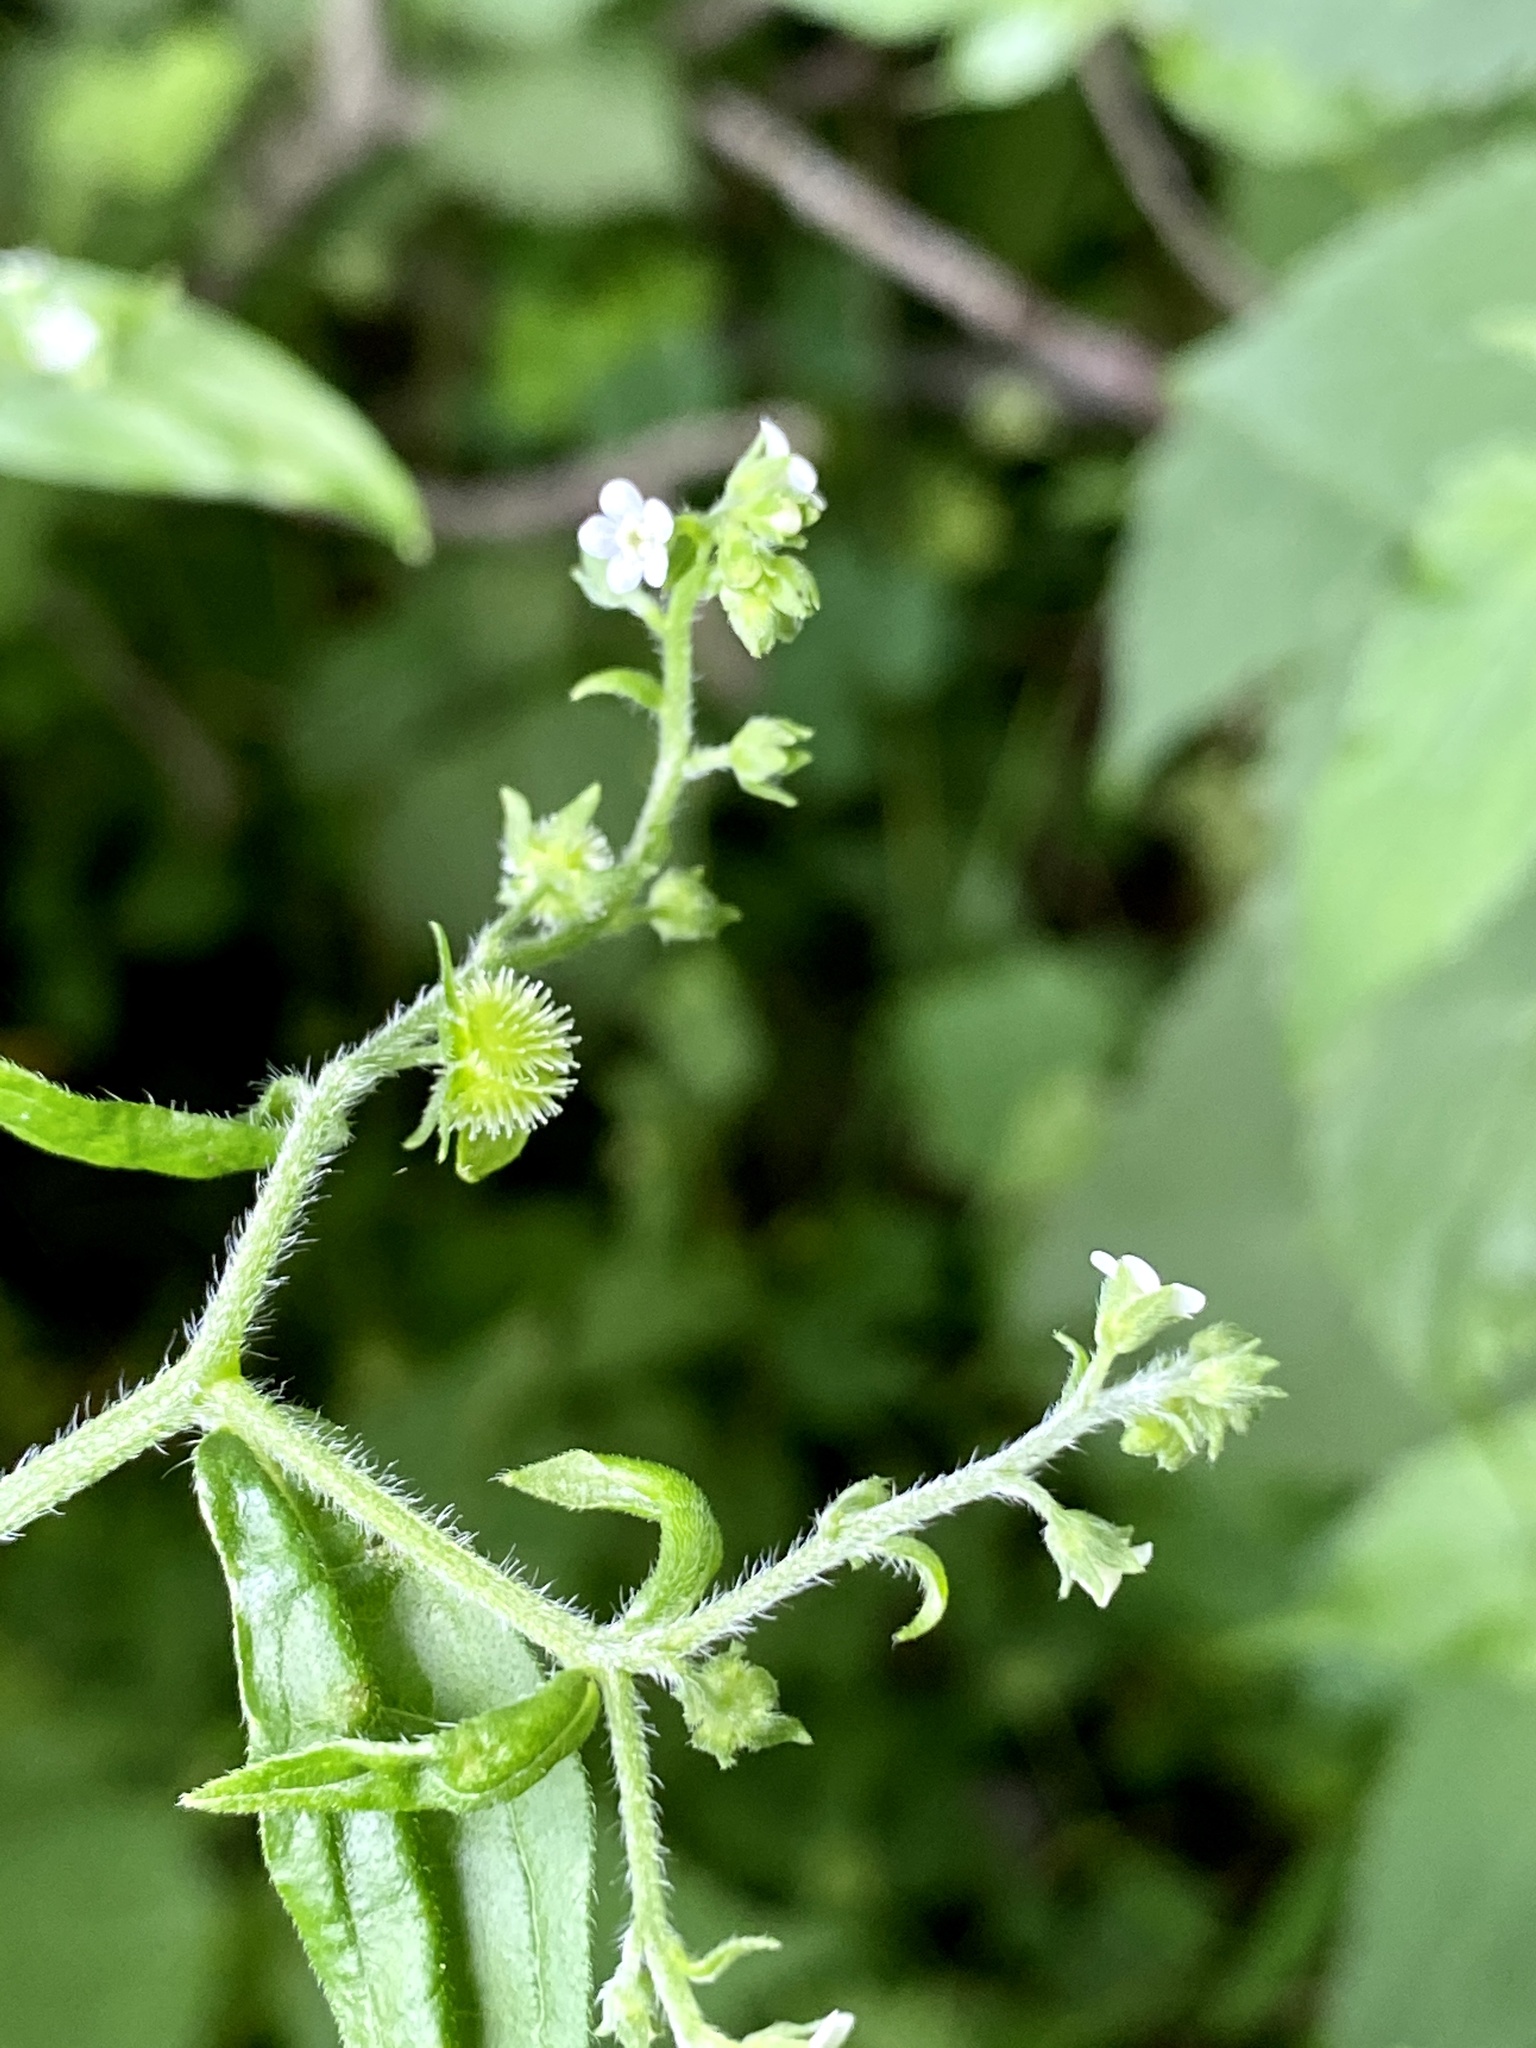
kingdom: Plantae
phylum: Tracheophyta
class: Magnoliopsida
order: Boraginales
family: Boraginaceae
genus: Hackelia
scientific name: Hackelia virginiana
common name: Beggar's-lice
